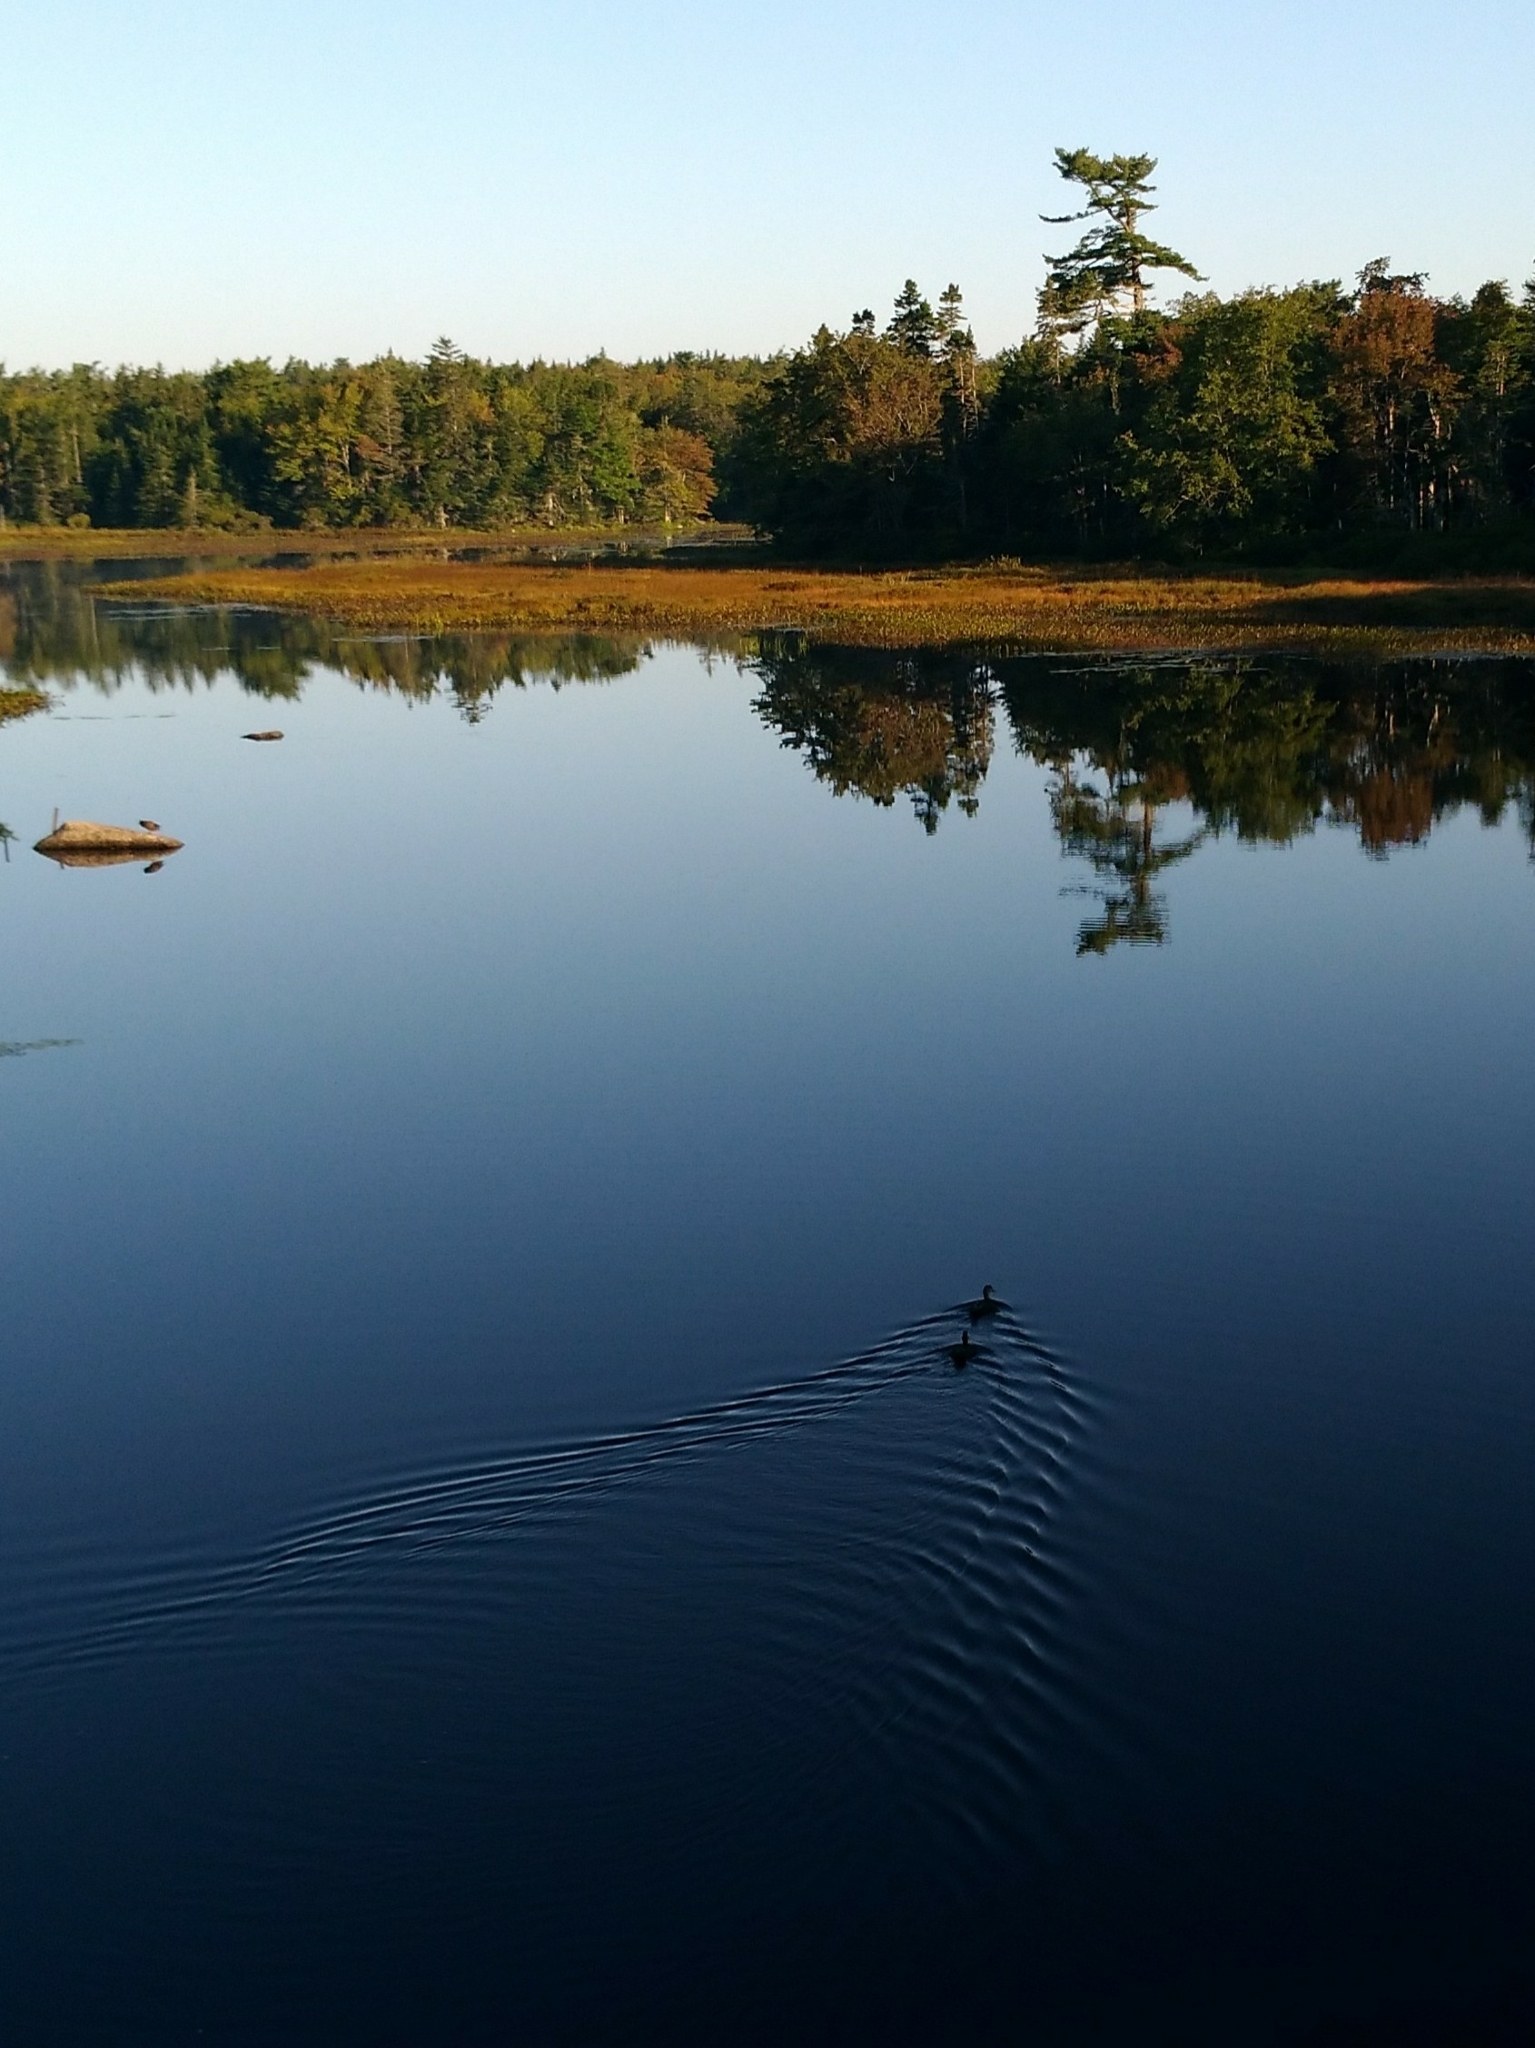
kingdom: Animalia
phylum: Chordata
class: Aves
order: Anseriformes
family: Anatidae
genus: Anas
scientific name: Anas platyrhynchos
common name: Mallard
